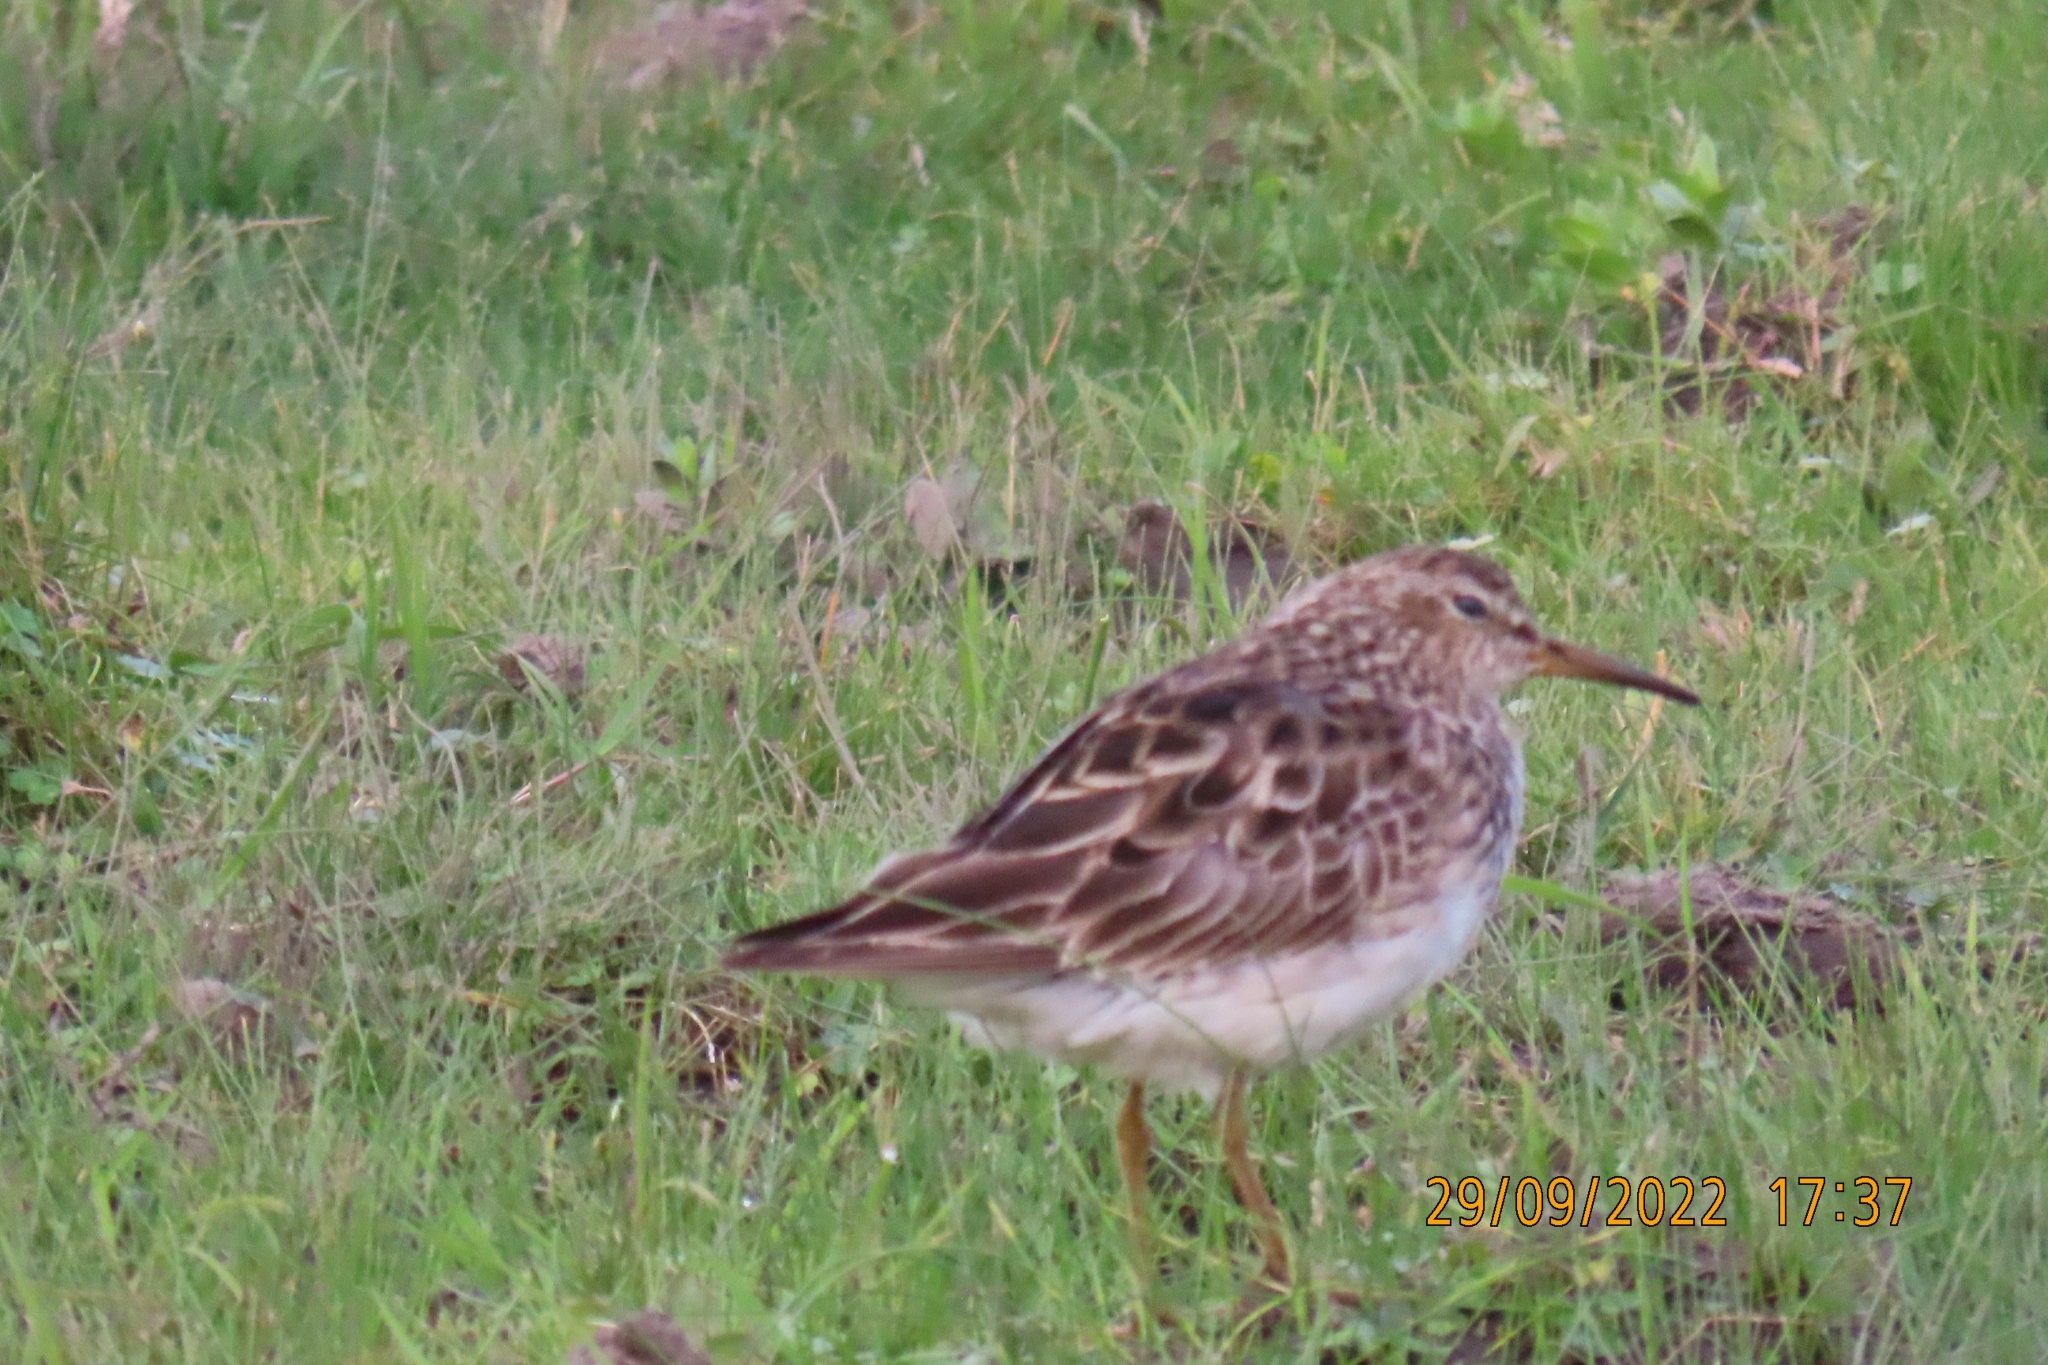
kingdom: Animalia
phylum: Chordata
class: Aves
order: Charadriiformes
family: Scolopacidae
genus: Calidris
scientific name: Calidris melanotos
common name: Pectoral sandpiper
